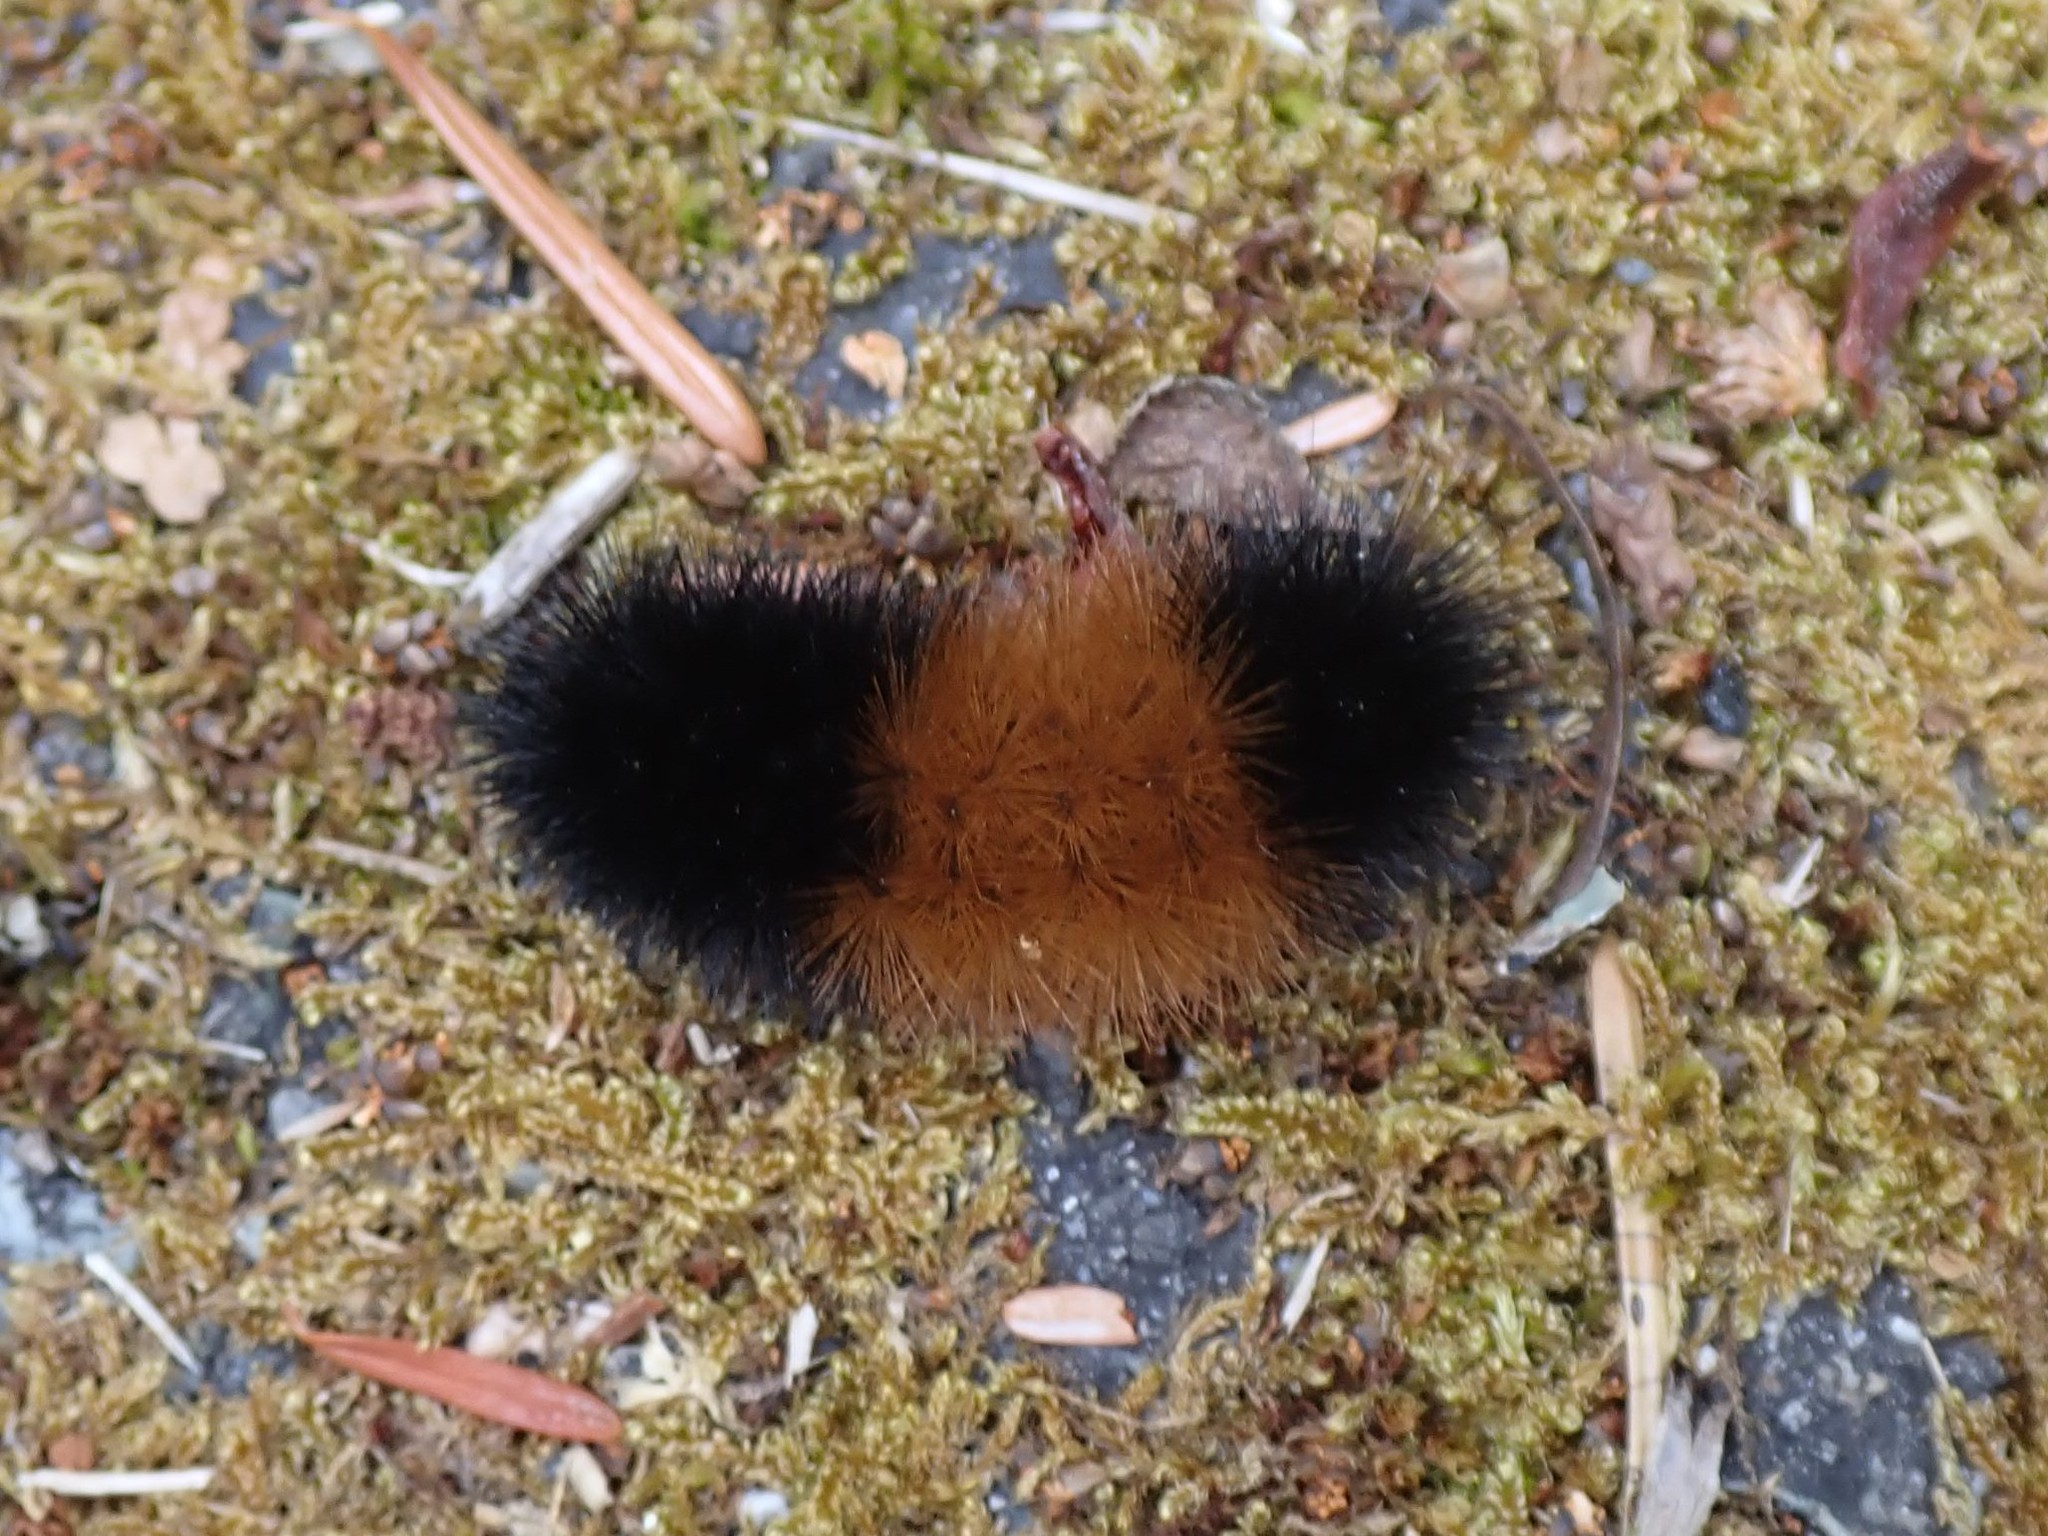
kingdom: Animalia
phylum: Arthropoda
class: Insecta
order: Lepidoptera
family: Erebidae
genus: Pyrrharctia
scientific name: Pyrrharctia isabella
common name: Isabella tiger moth
